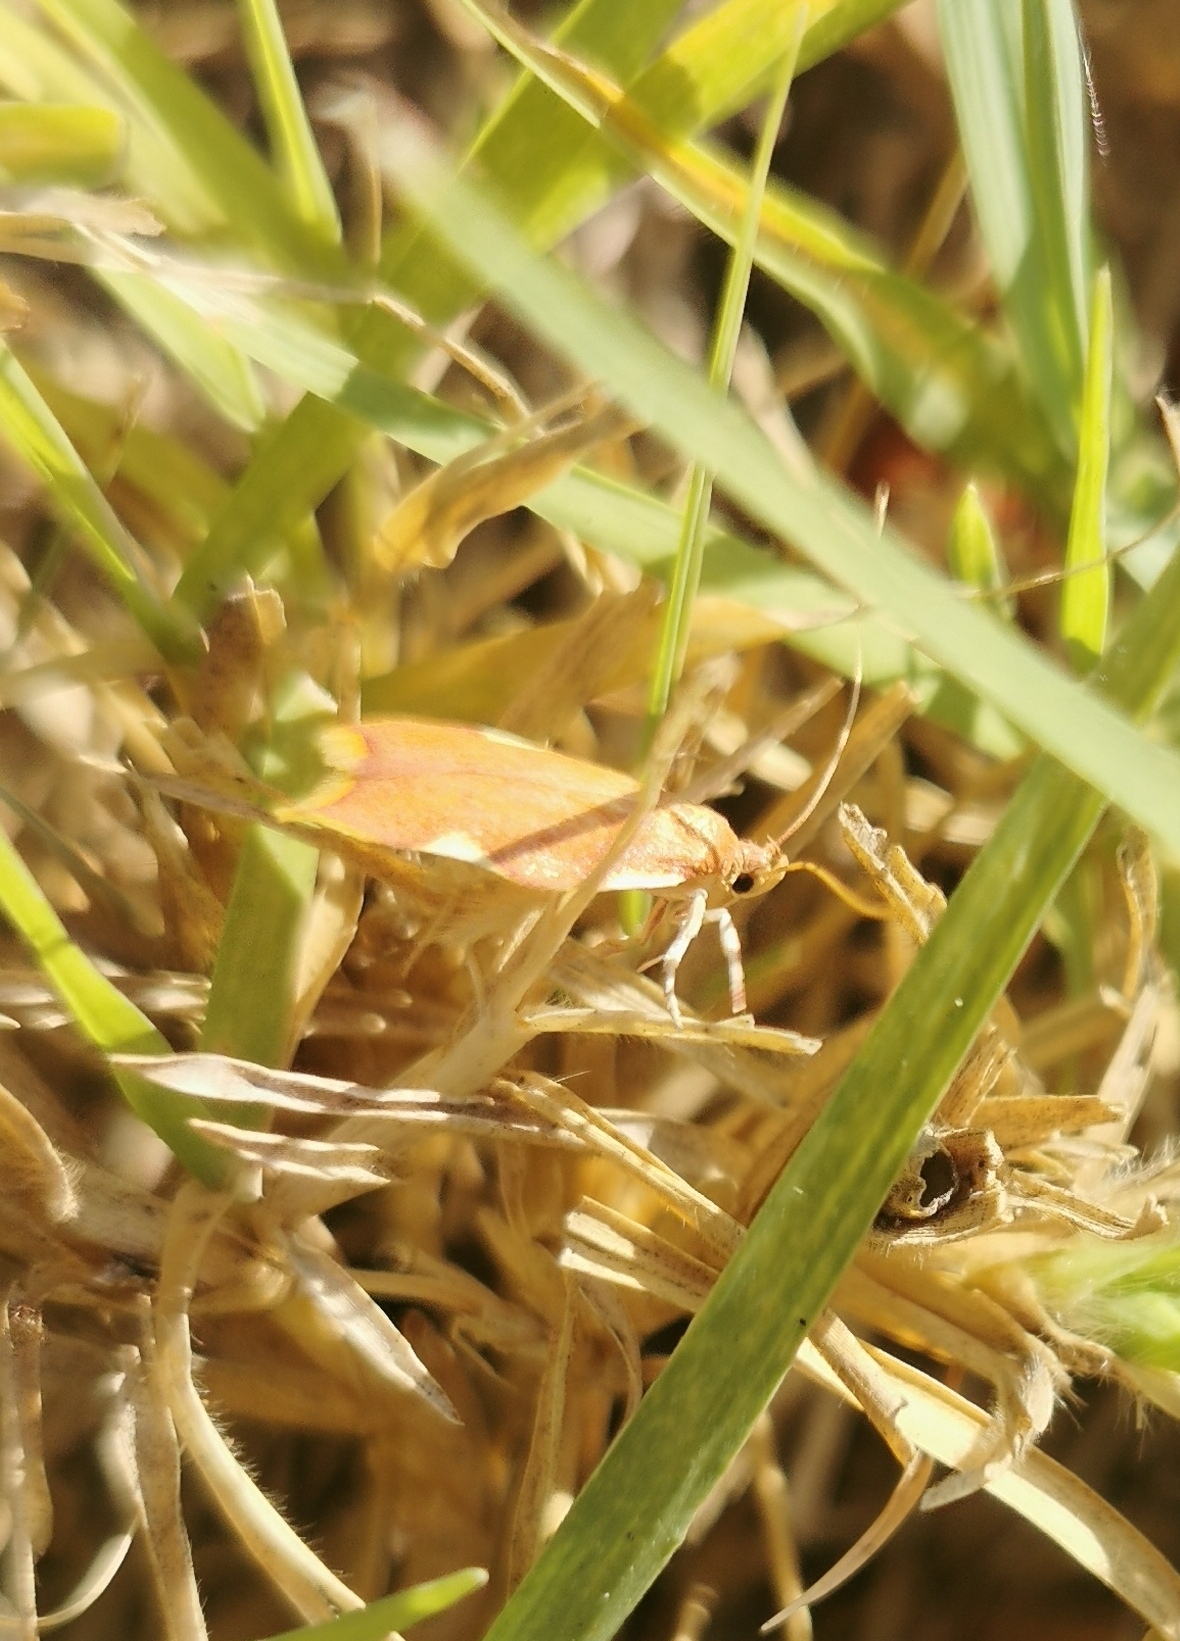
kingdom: Animalia
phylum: Arthropoda
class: Insecta
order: Lepidoptera
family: Peleopodidae
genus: Carcina
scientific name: Carcina quercana
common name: Moth
